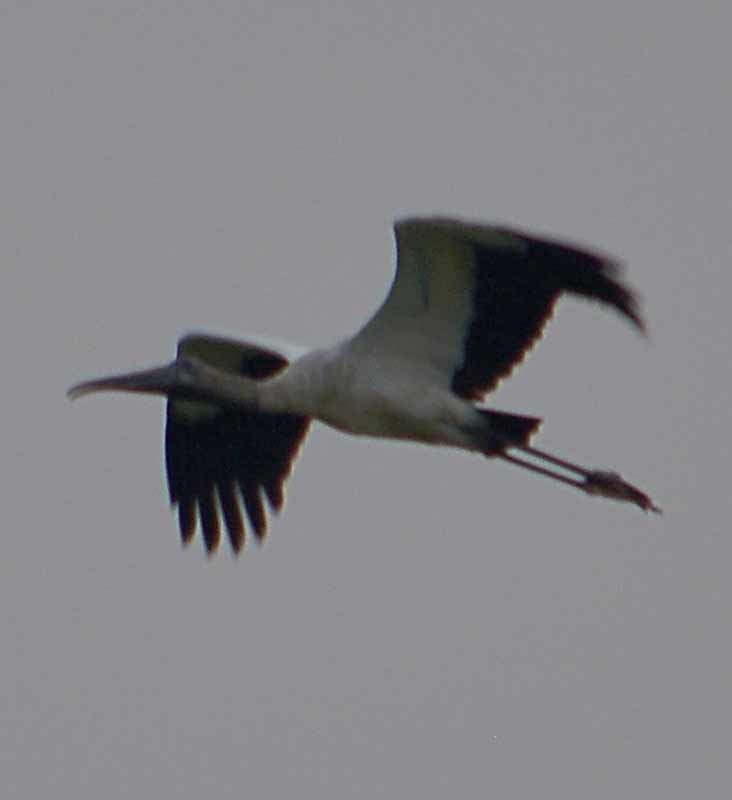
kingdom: Animalia
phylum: Chordata
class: Aves
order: Ciconiiformes
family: Ciconiidae
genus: Mycteria
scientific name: Mycteria americana
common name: Wood stork
